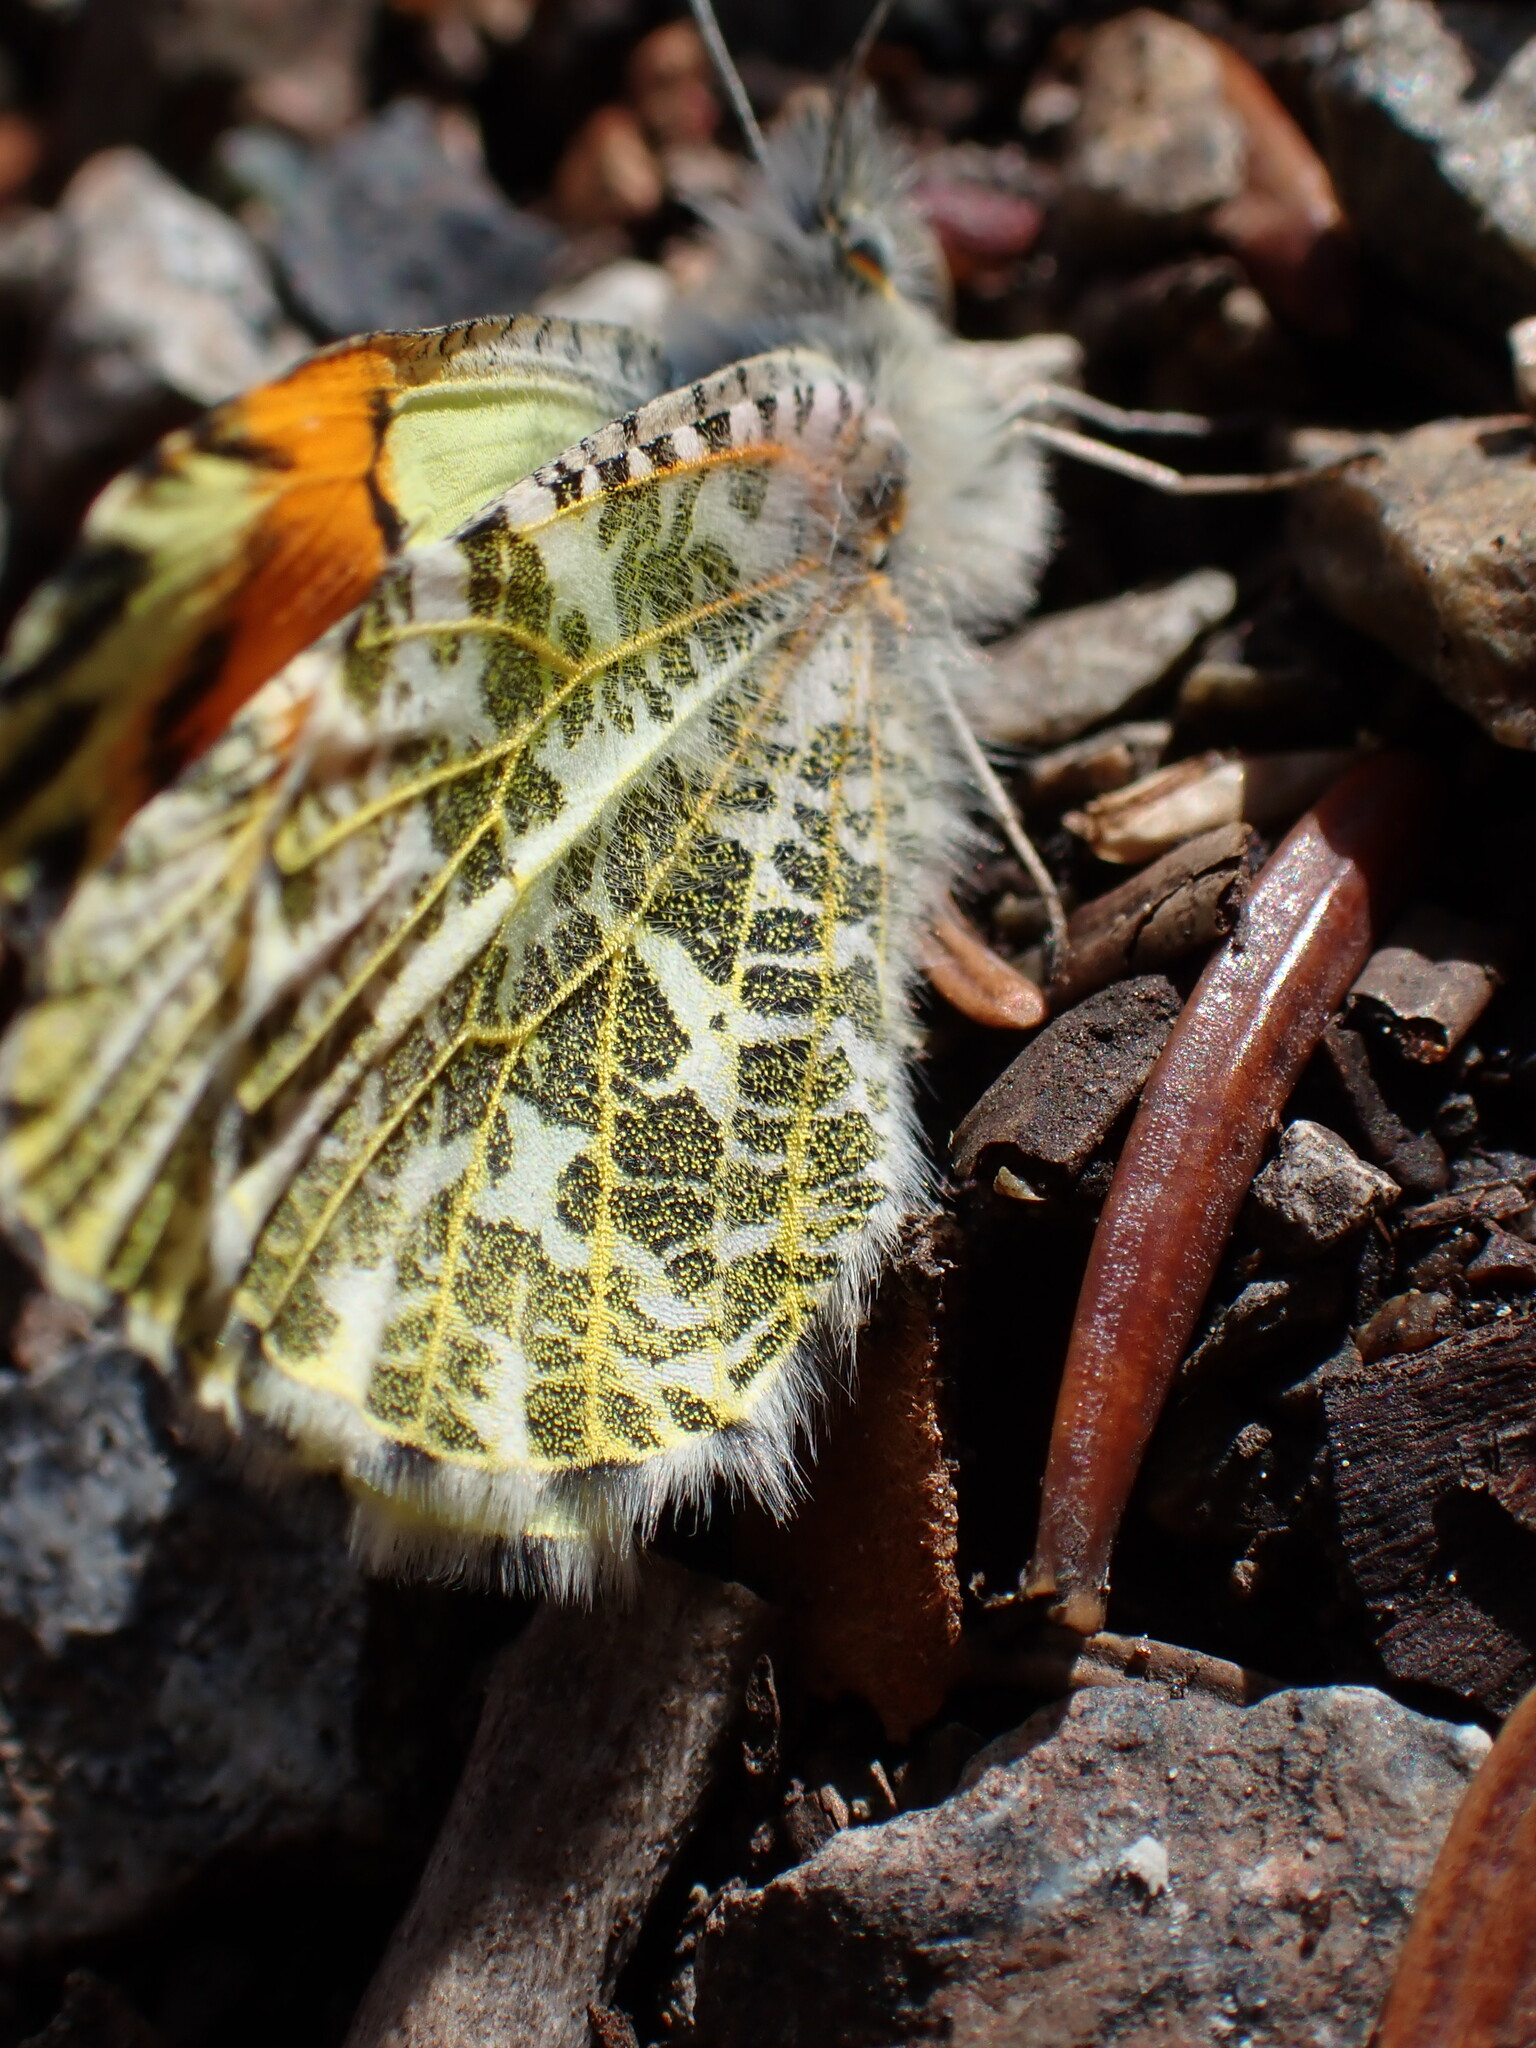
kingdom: Animalia
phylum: Arthropoda
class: Insecta
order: Lepidoptera
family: Pieridae
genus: Anthocharis
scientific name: Anthocharis julia
